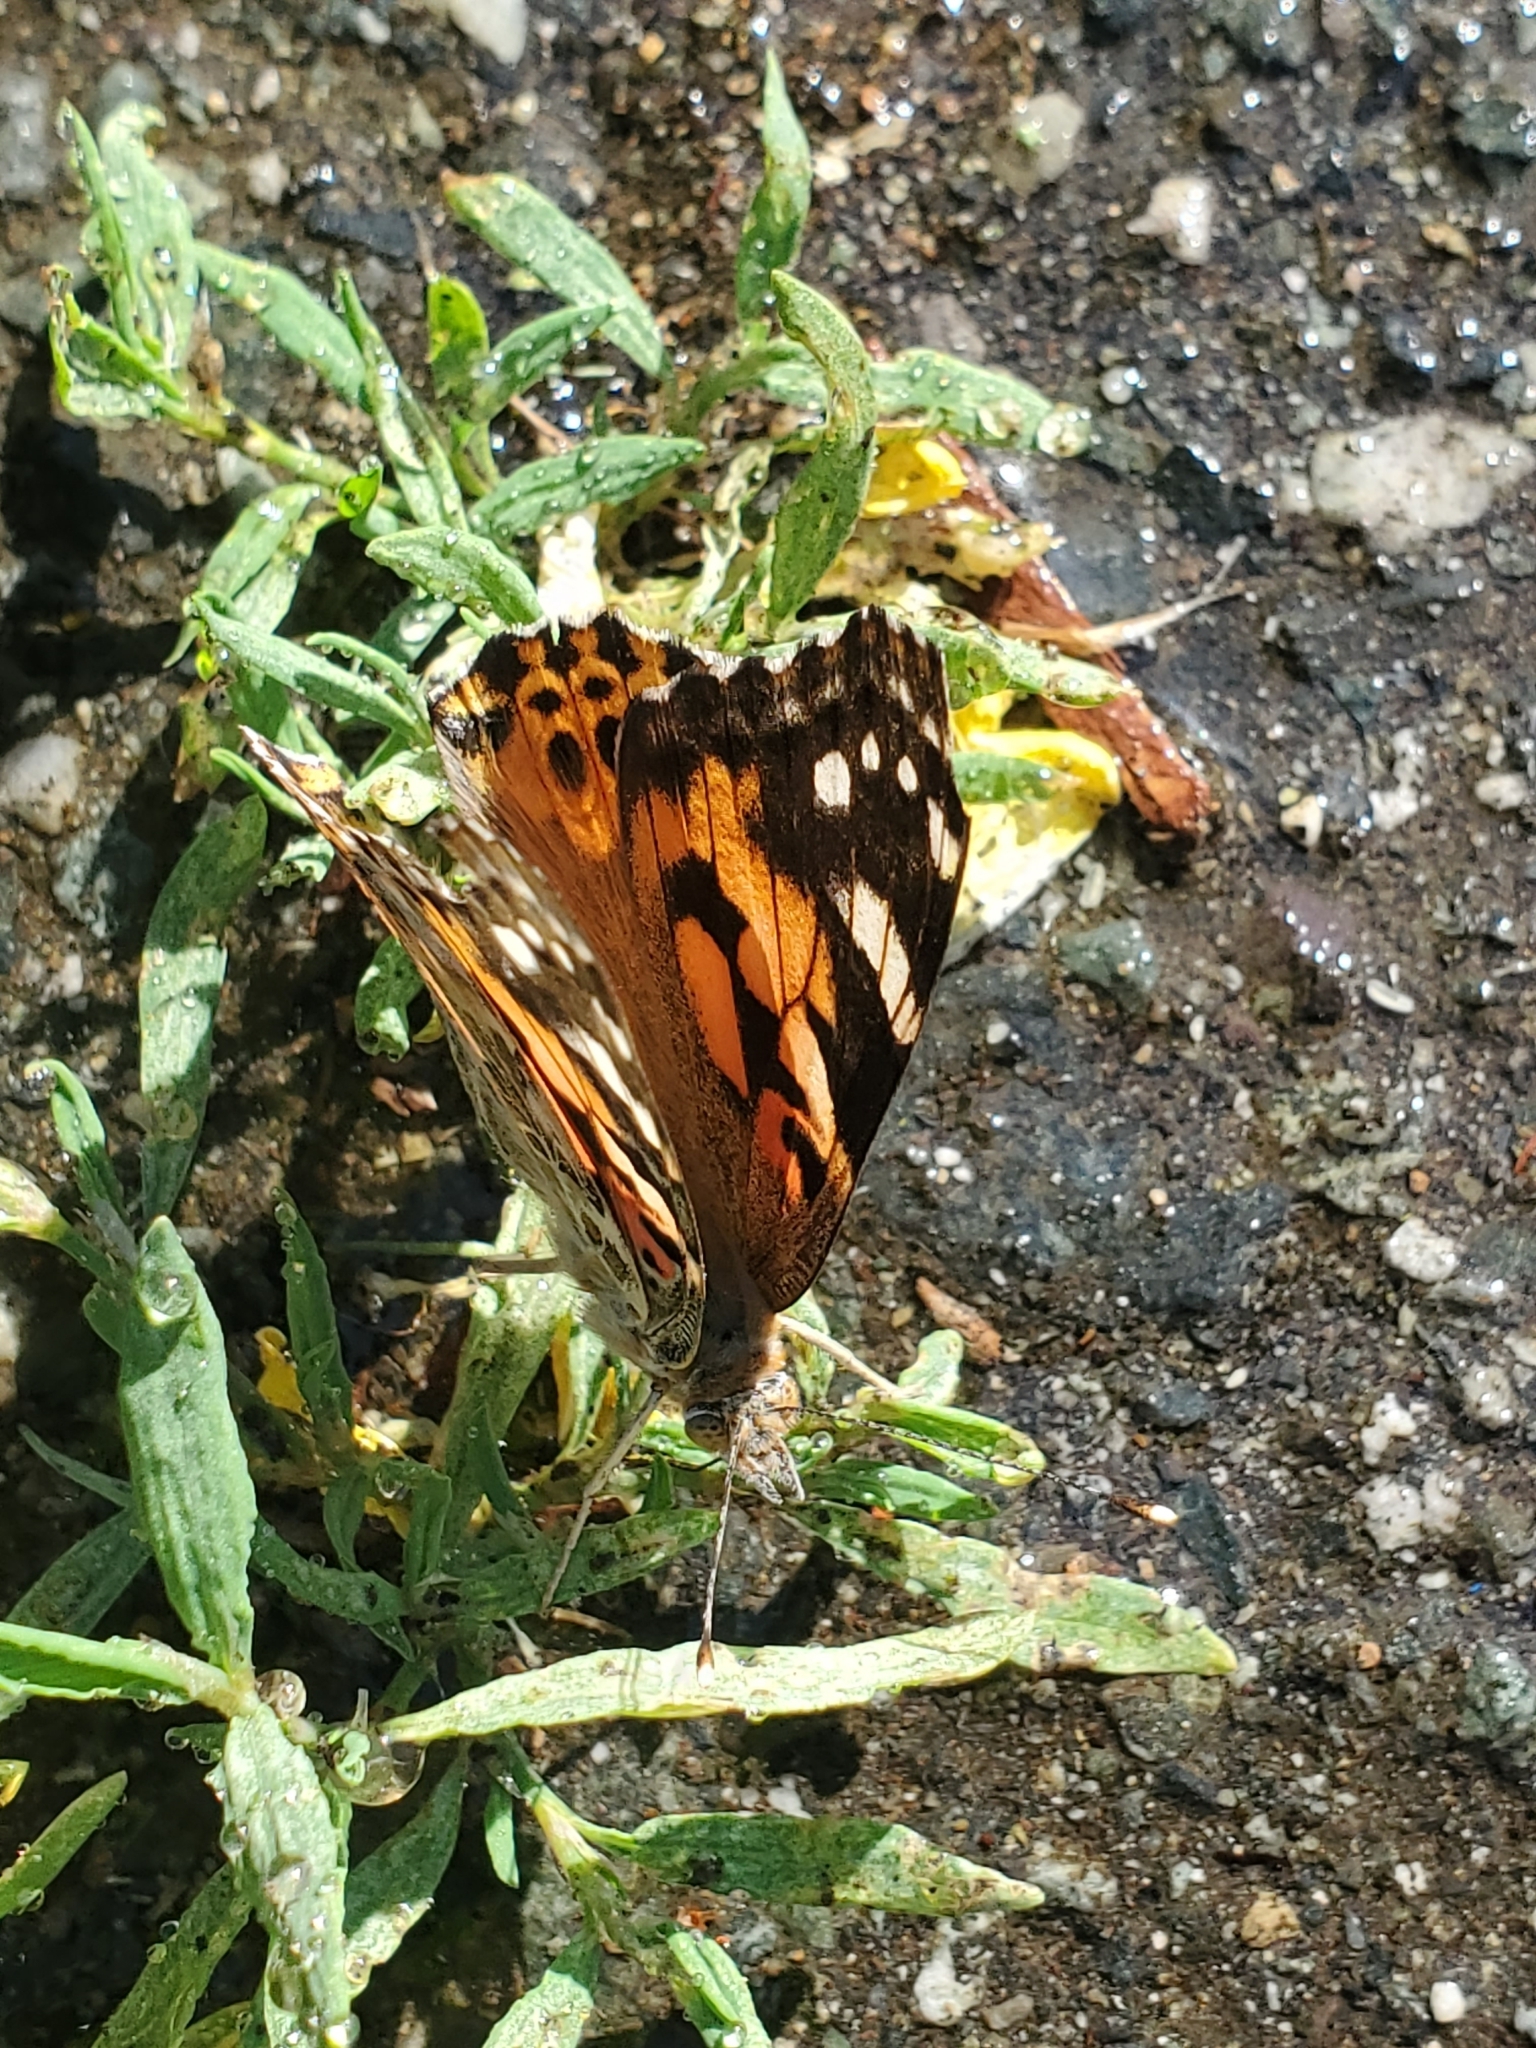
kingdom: Animalia
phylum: Arthropoda
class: Insecta
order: Lepidoptera
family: Nymphalidae
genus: Vanessa
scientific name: Vanessa cardui
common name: Painted lady
